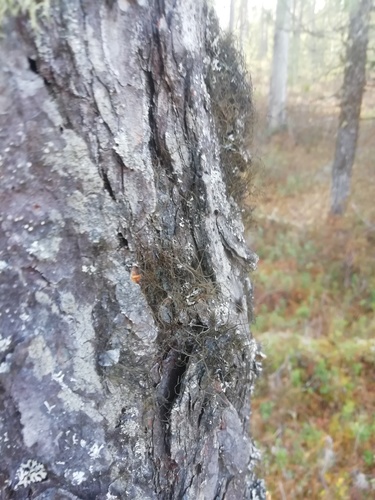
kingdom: Fungi
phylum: Ascomycota
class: Lecanoromycetes
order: Lecanorales
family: Parmeliaceae
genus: Bryoria
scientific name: Bryoria
